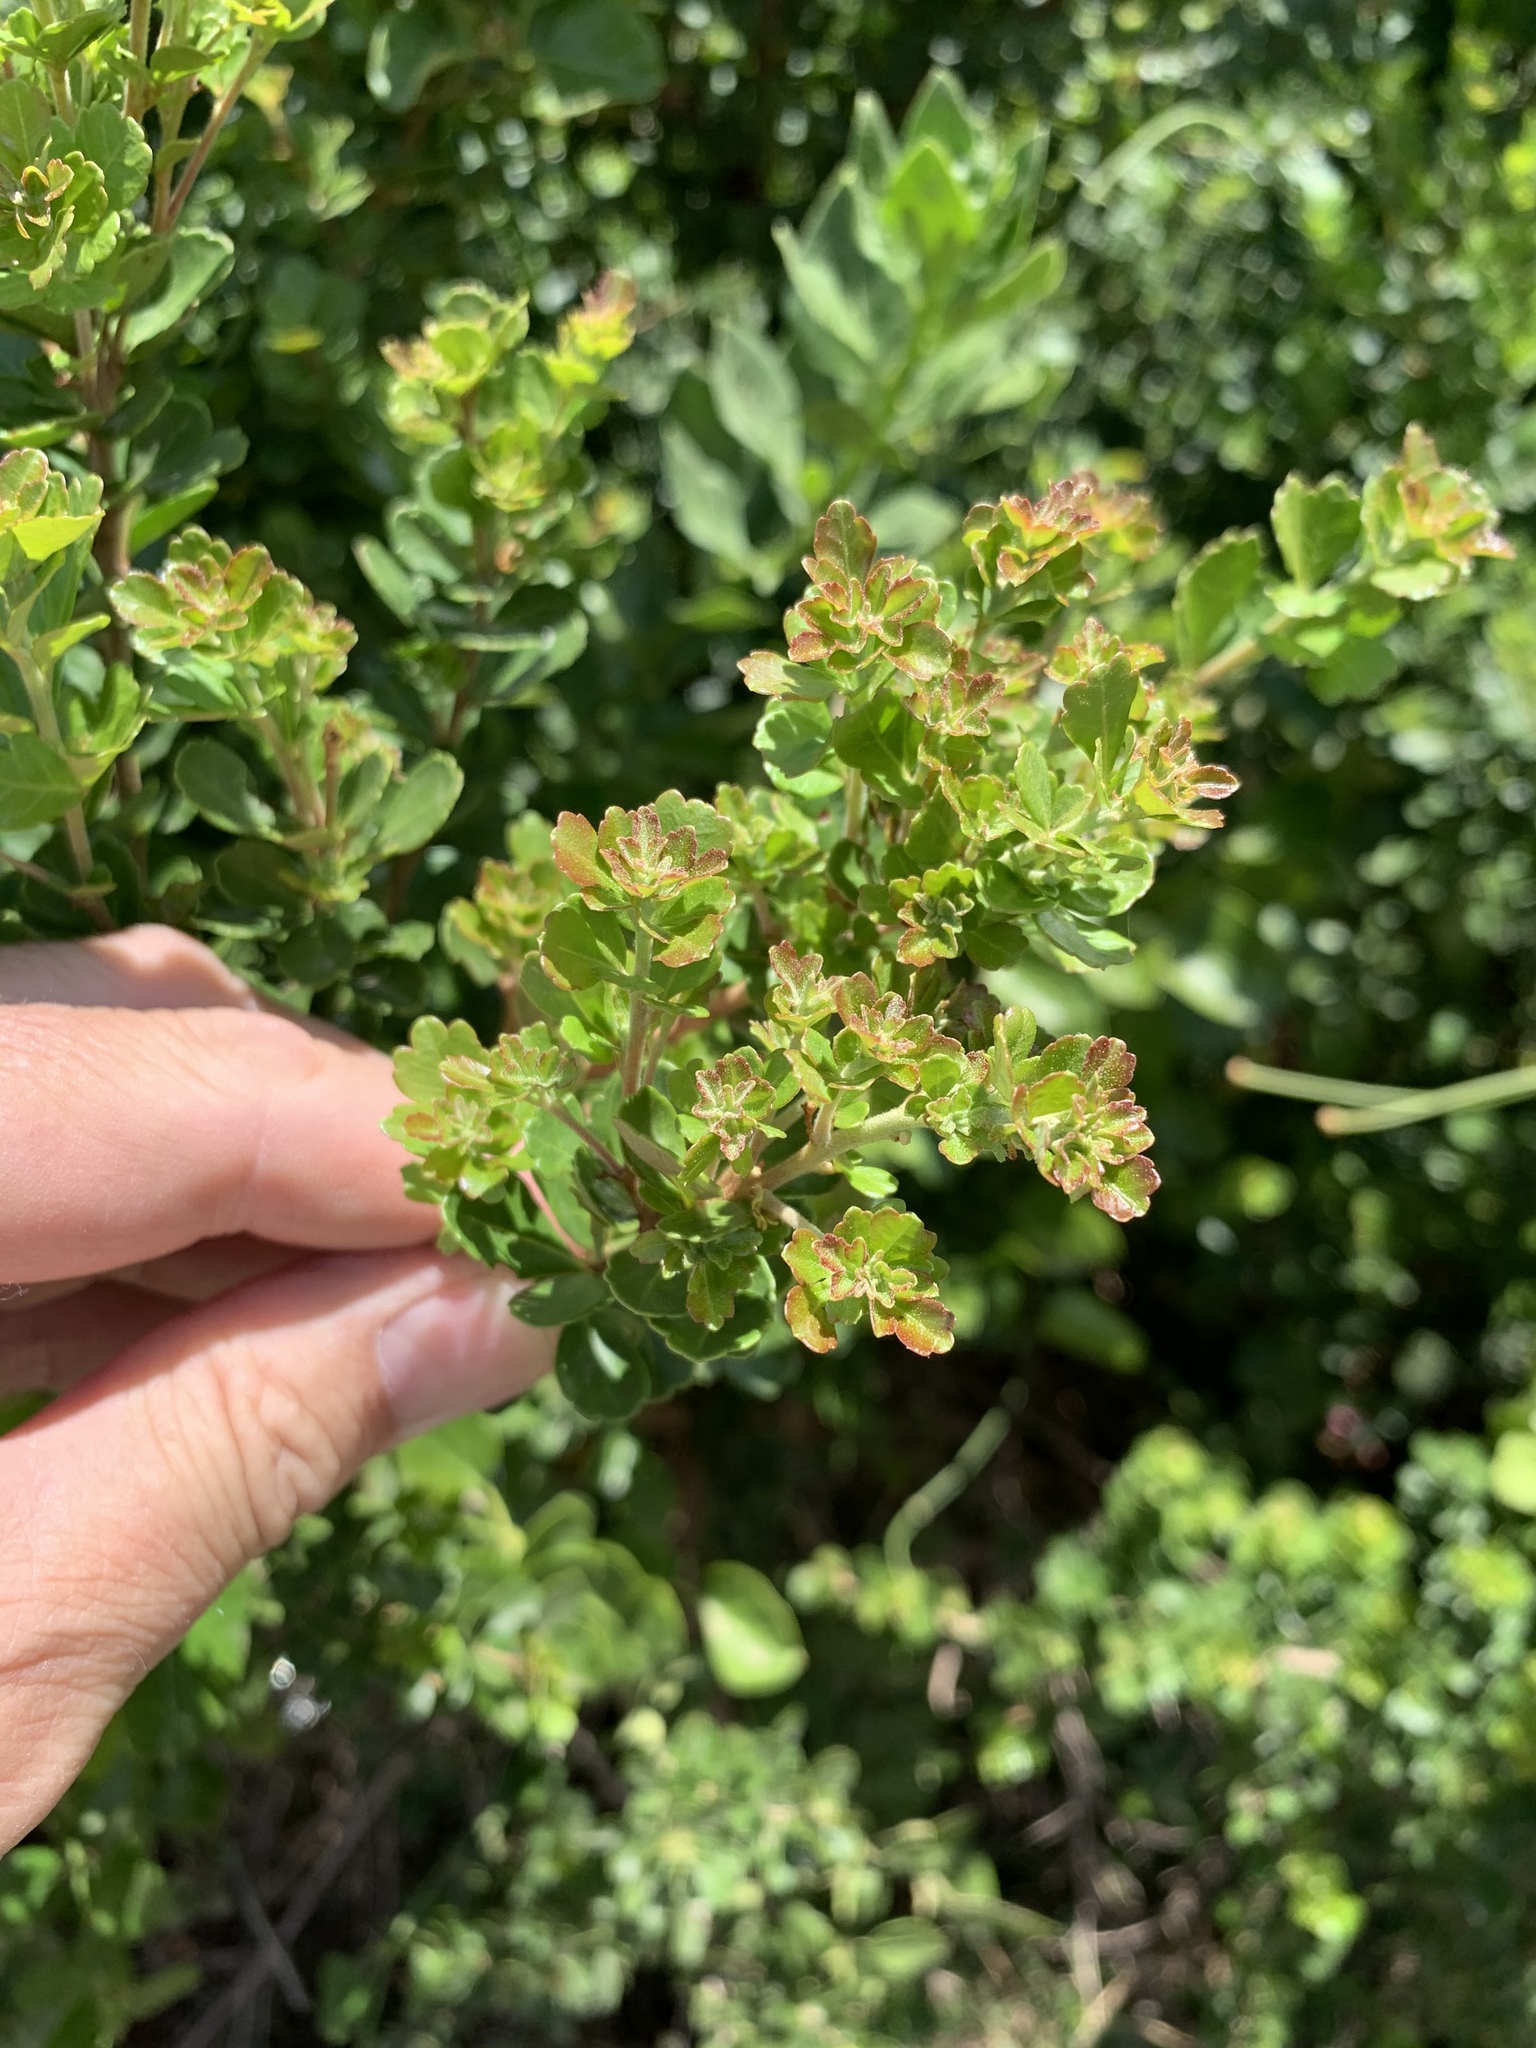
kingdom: Plantae
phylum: Tracheophyta
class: Magnoliopsida
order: Sapindales
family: Anacardiaceae
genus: Searsia
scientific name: Searsia crenata
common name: Crowberry
